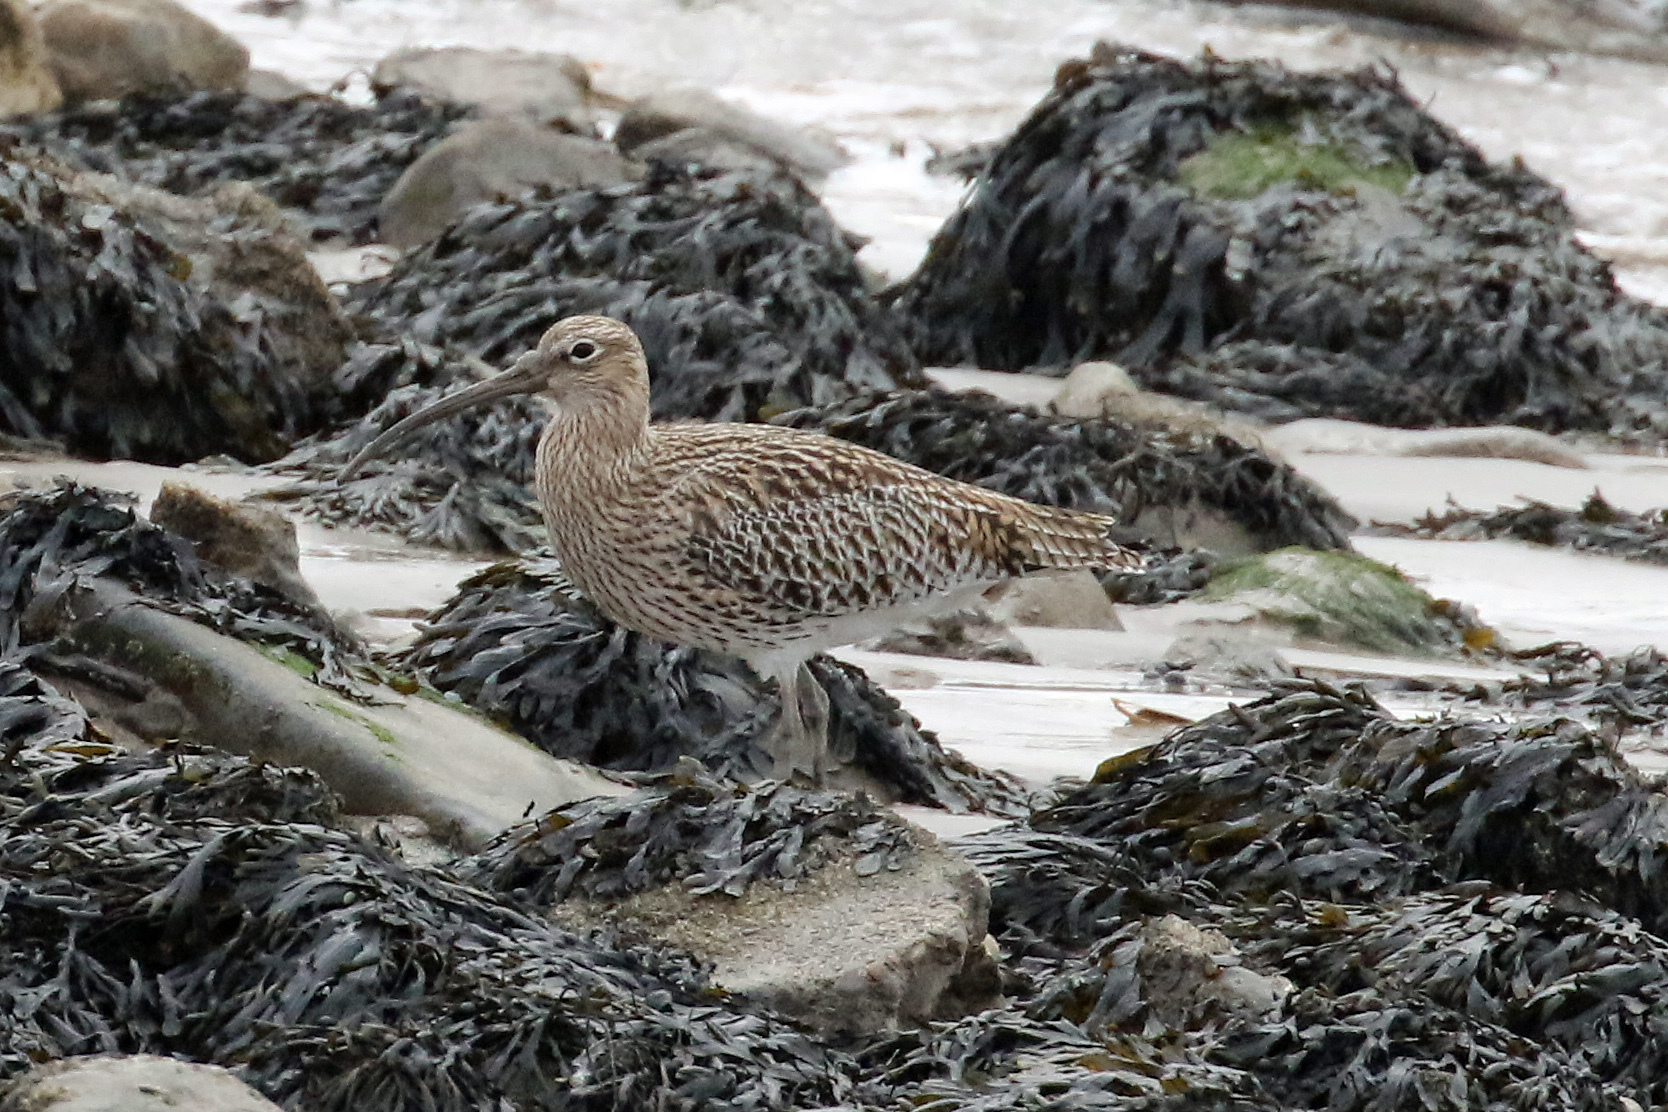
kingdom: Animalia
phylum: Chordata
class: Aves
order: Charadriiformes
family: Scolopacidae
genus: Numenius
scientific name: Numenius arquata
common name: Eurasian curlew
